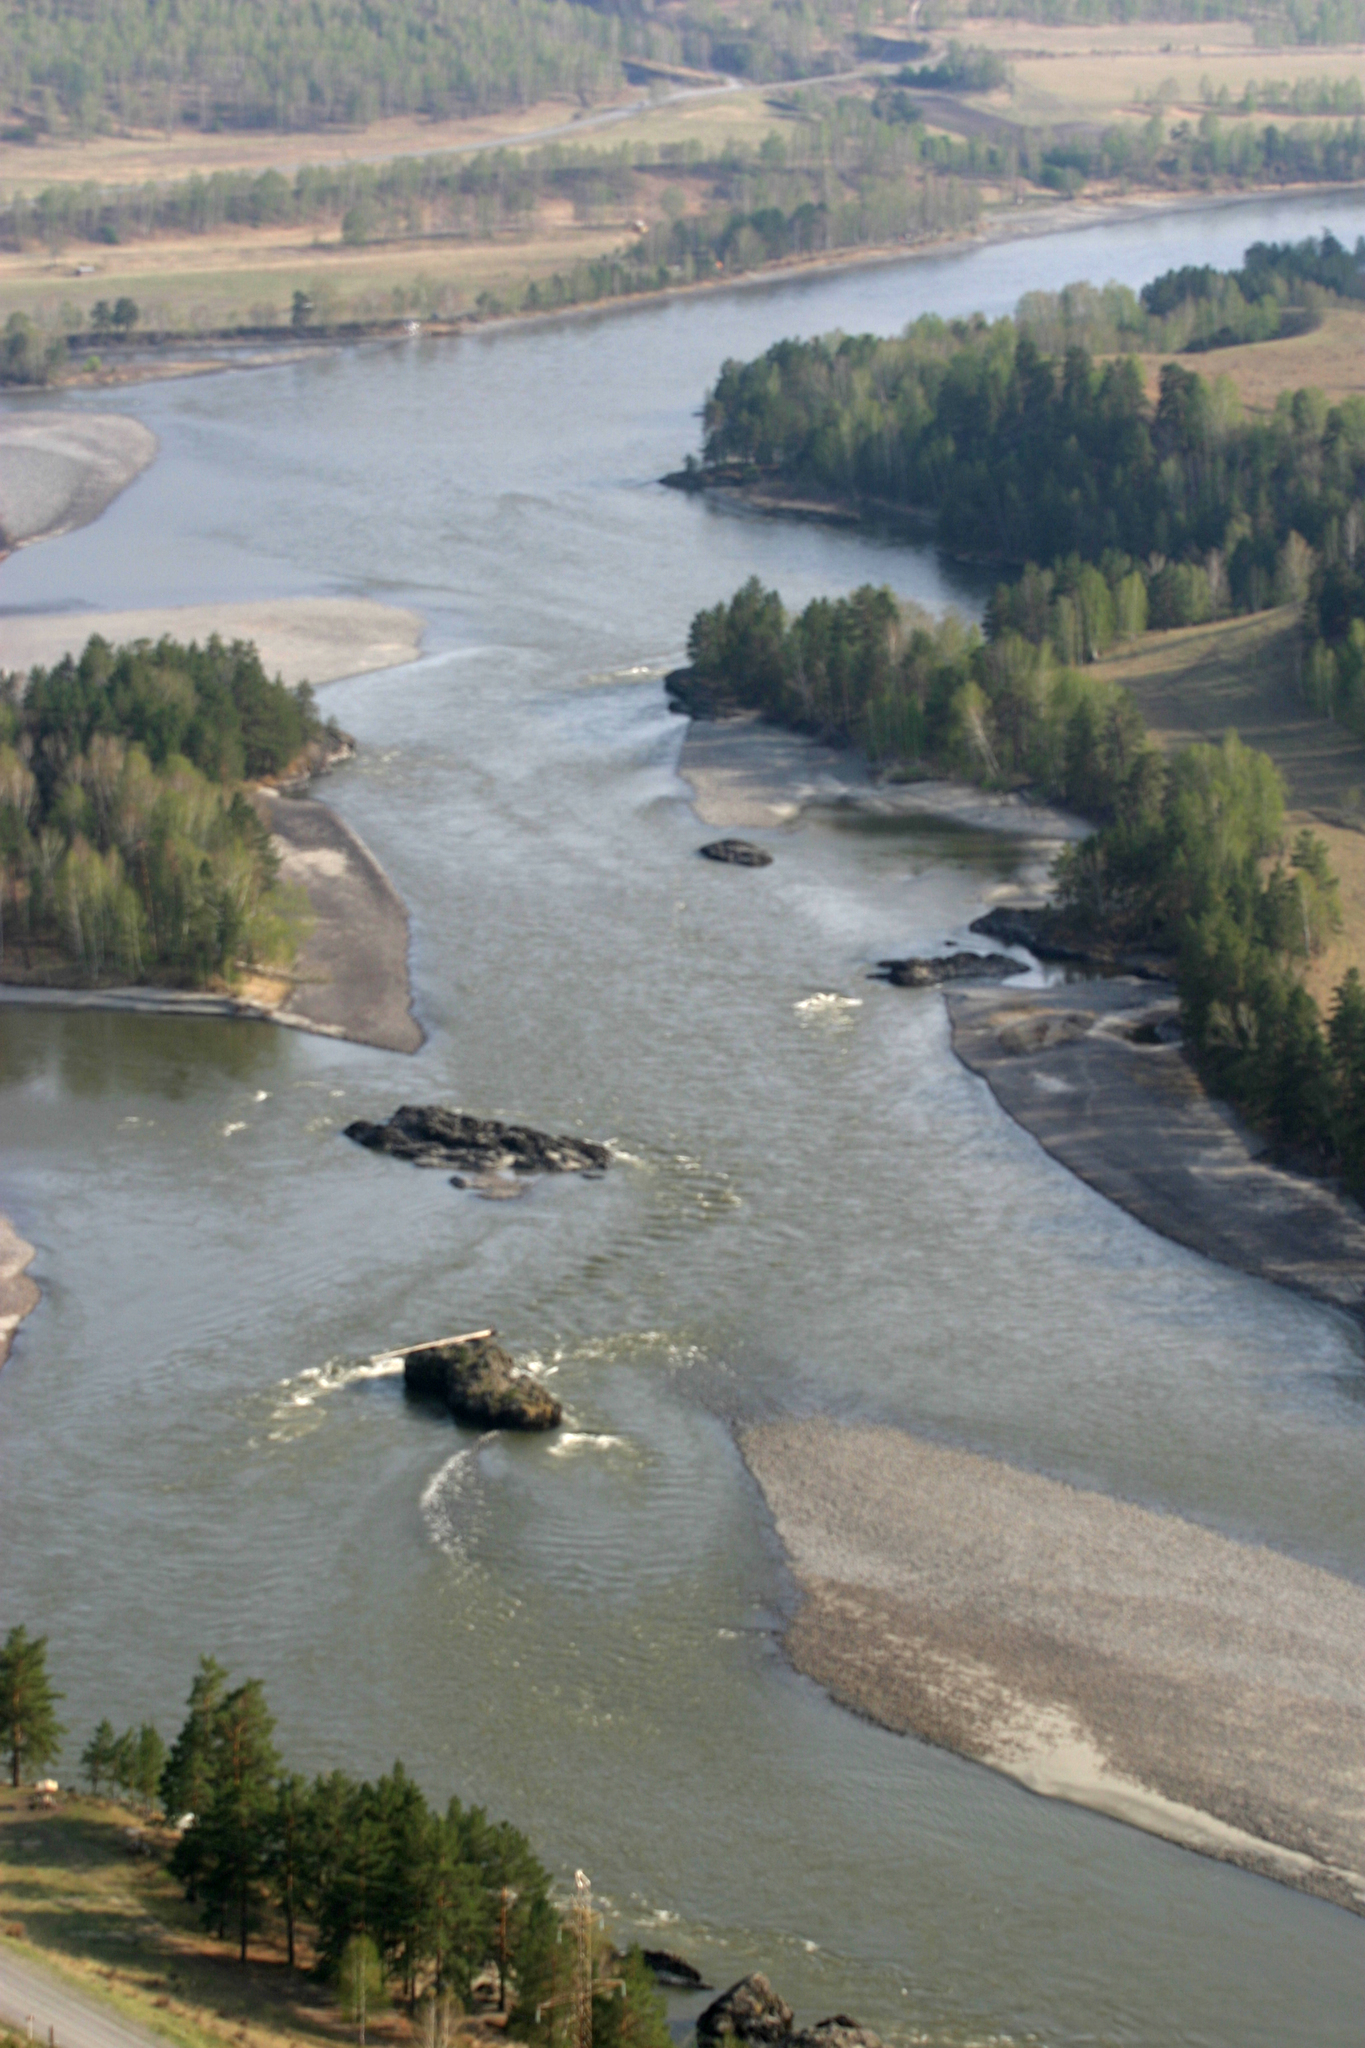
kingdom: Plantae
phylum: Tracheophyta
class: Pinopsida
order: Pinales
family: Pinaceae
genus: Pinus
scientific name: Pinus sylvestris
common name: Scots pine
